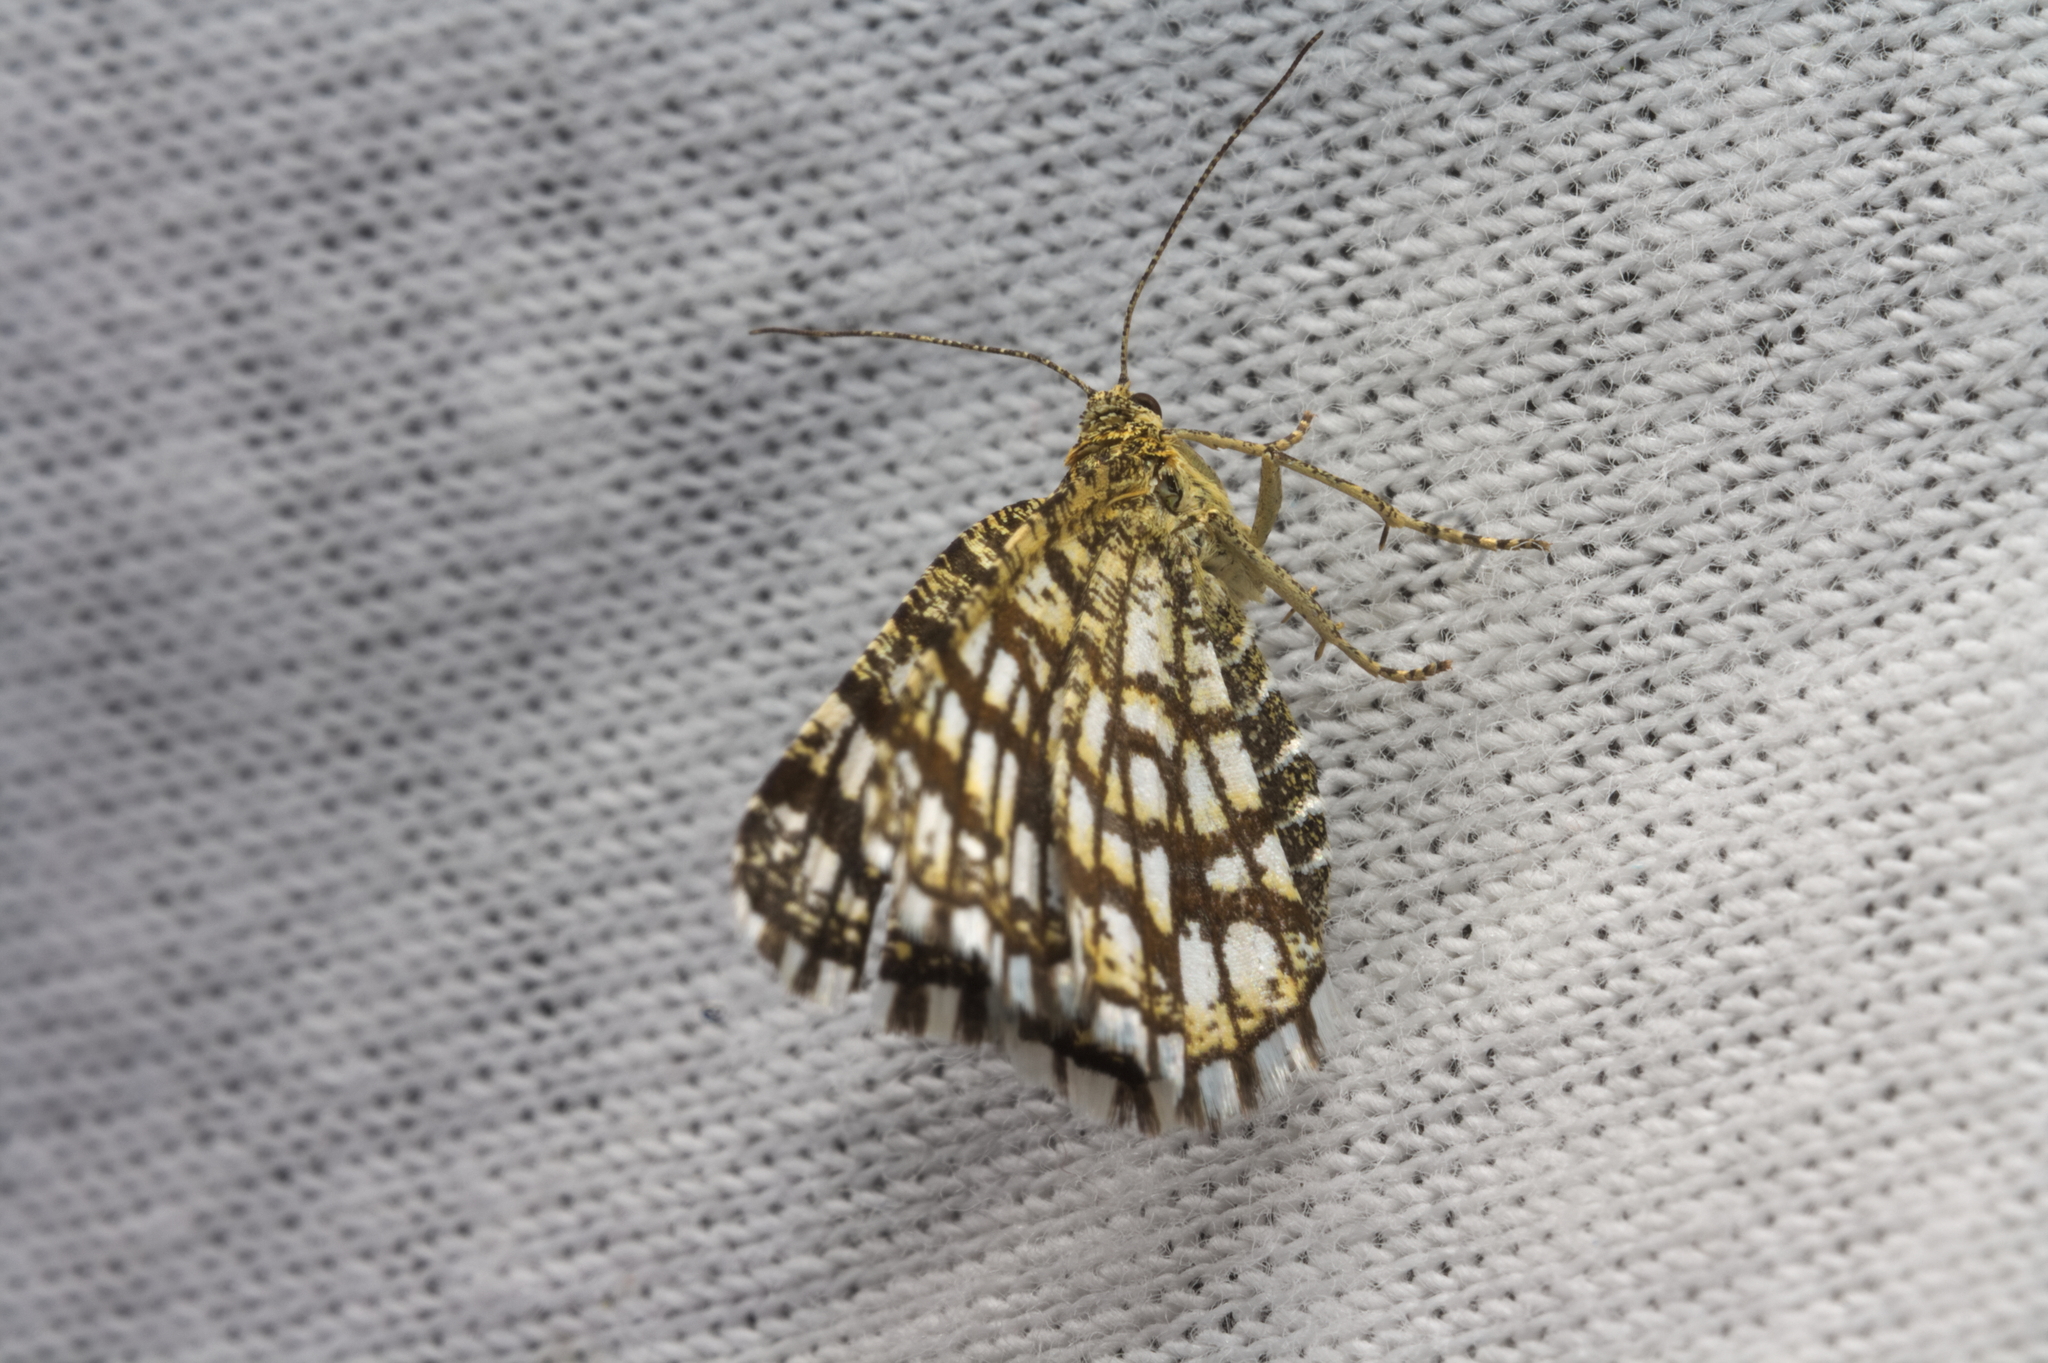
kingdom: Animalia
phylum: Arthropoda
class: Insecta
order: Lepidoptera
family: Geometridae
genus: Chiasmia
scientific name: Chiasmia clathrata
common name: Latticed heath
